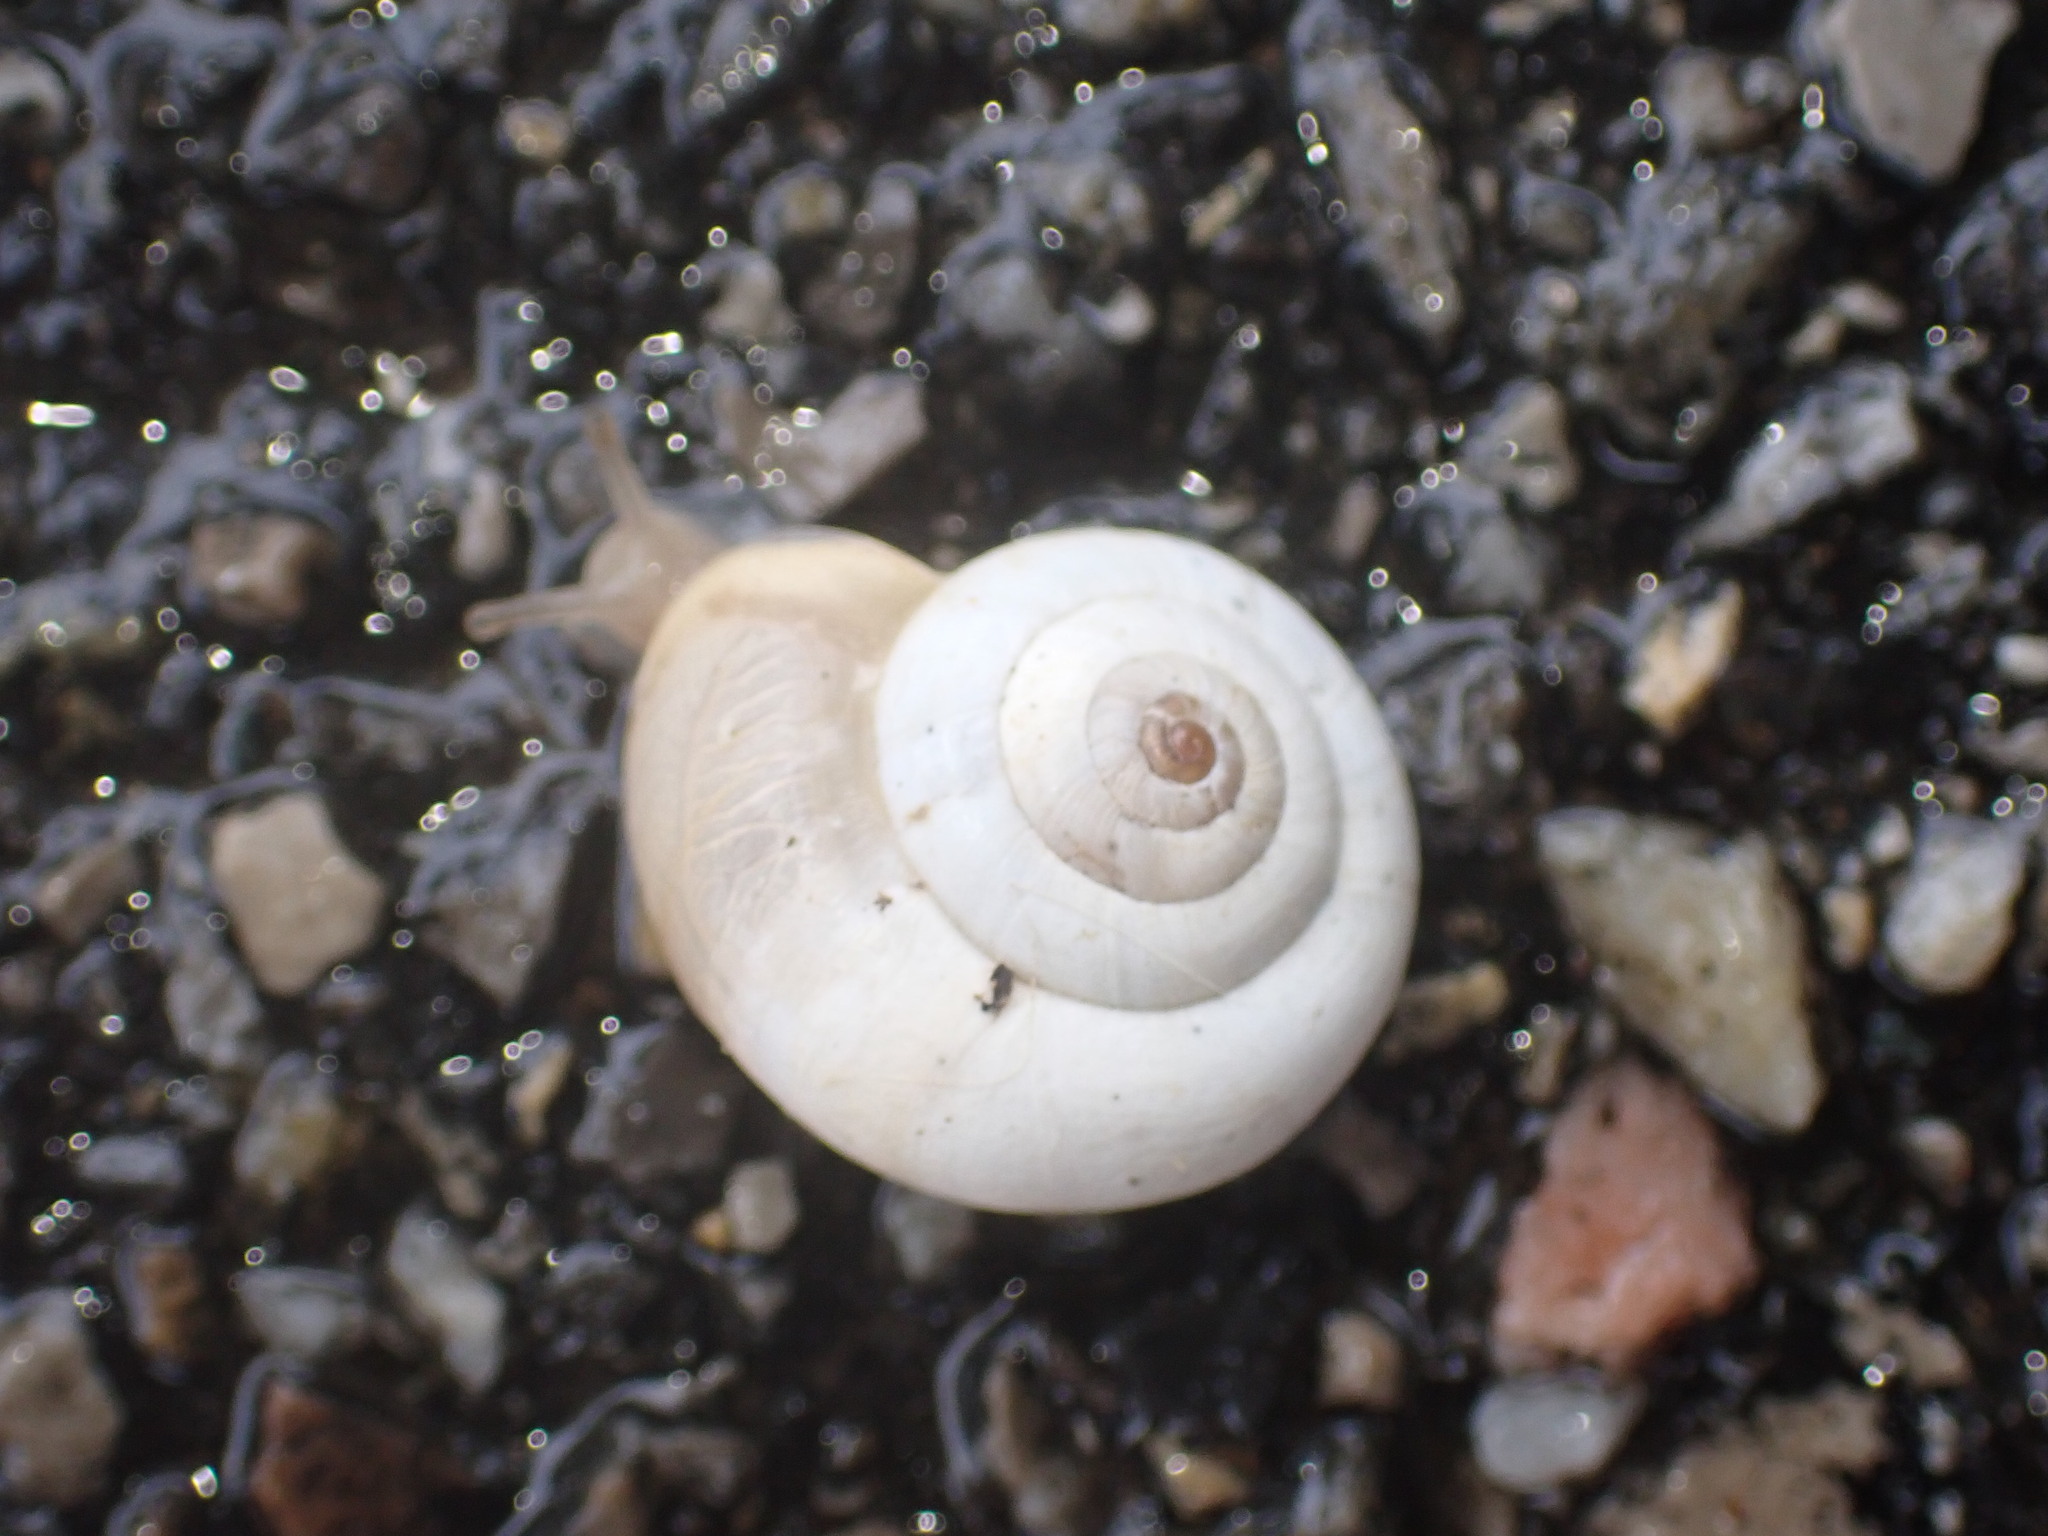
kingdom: Animalia
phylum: Mollusca
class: Gastropoda
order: Stylommatophora
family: Geomitridae
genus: Xeropicta
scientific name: Xeropicta derbentina
